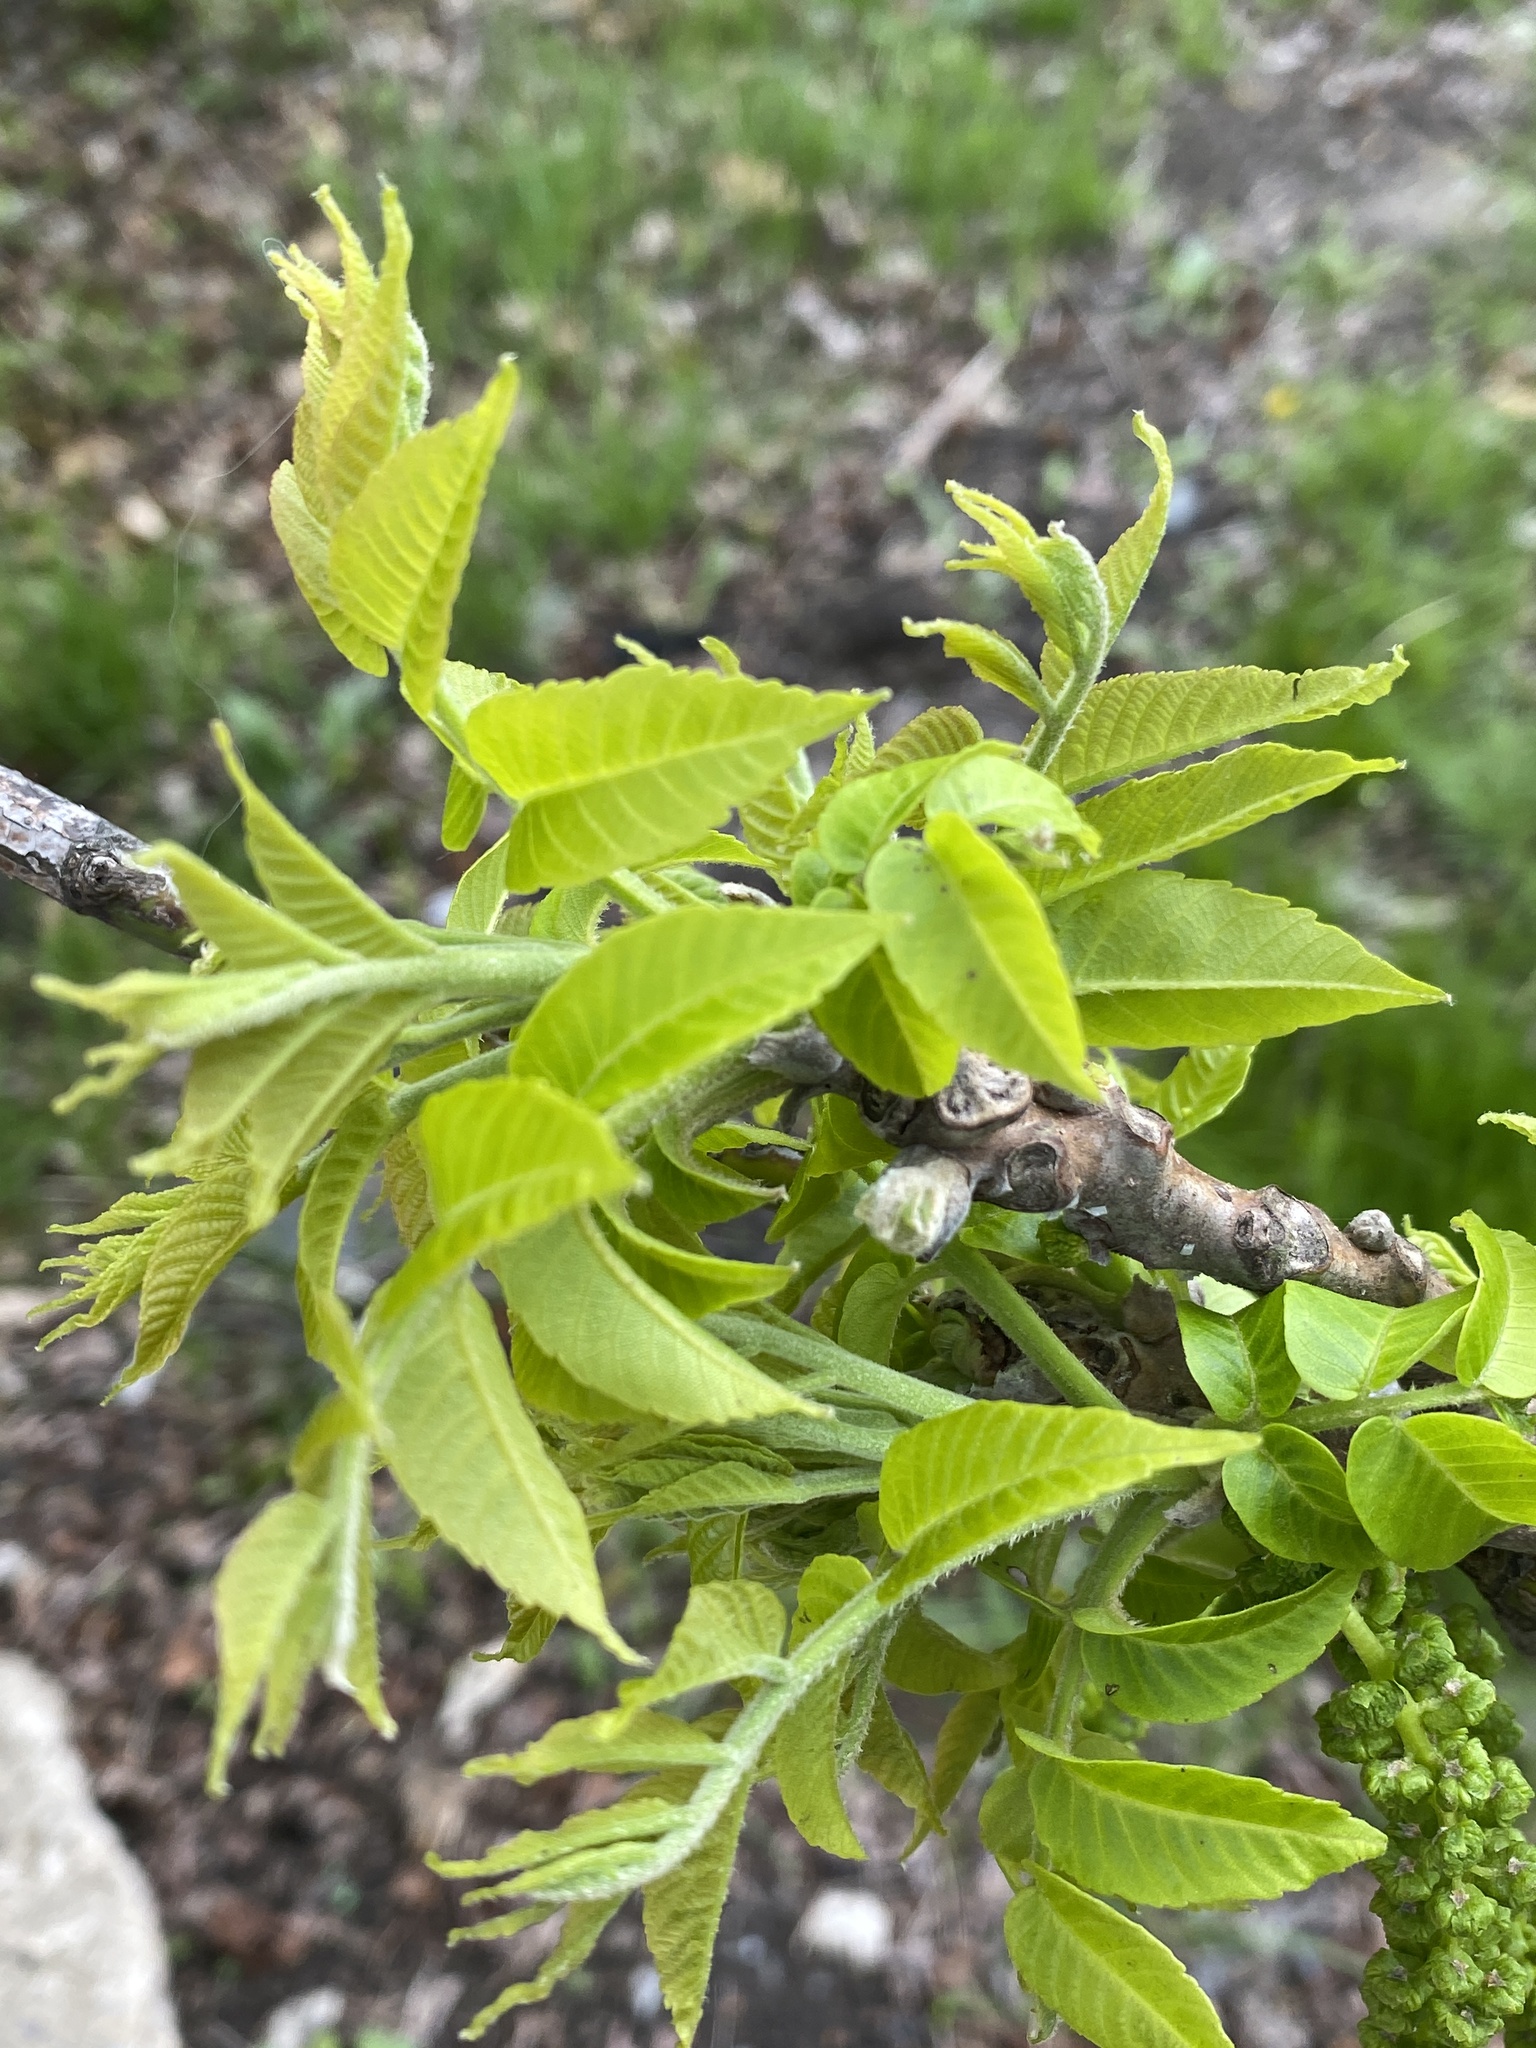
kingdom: Plantae
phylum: Tracheophyta
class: Magnoliopsida
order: Fagales
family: Juglandaceae
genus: Juglans
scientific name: Juglans nigra
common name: Black walnut
